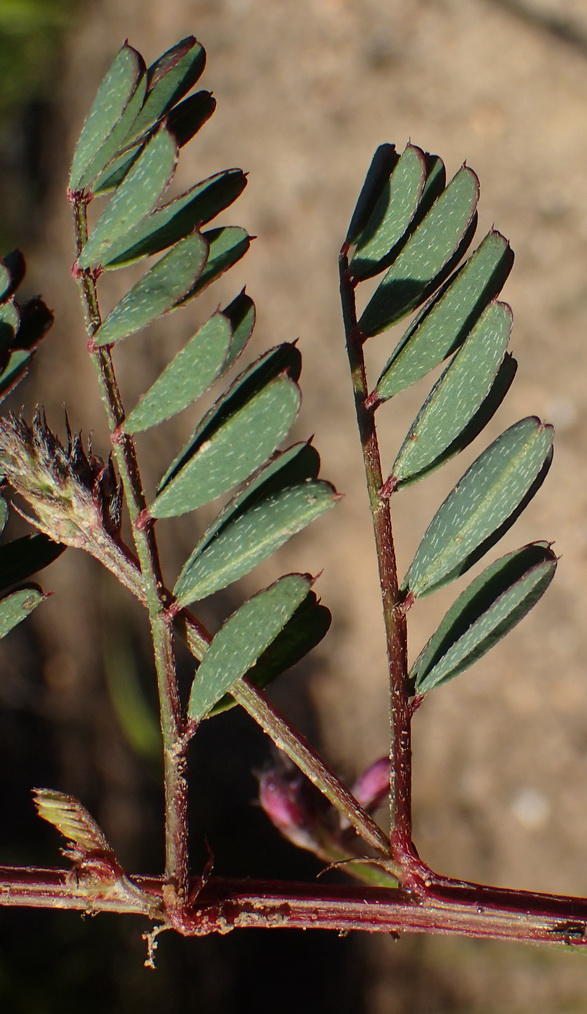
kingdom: Plantae
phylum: Tracheophyta
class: Magnoliopsida
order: Fabales
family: Fabaceae
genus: Indigofera
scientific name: Indigofera declinata
